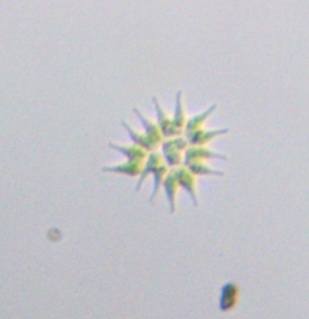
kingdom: Plantae
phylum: Chlorophyta
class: Chlorophyceae
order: Sphaeropleales
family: Hydrodictyaceae
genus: Pseudopediastrum
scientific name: Pseudopediastrum boryanum
